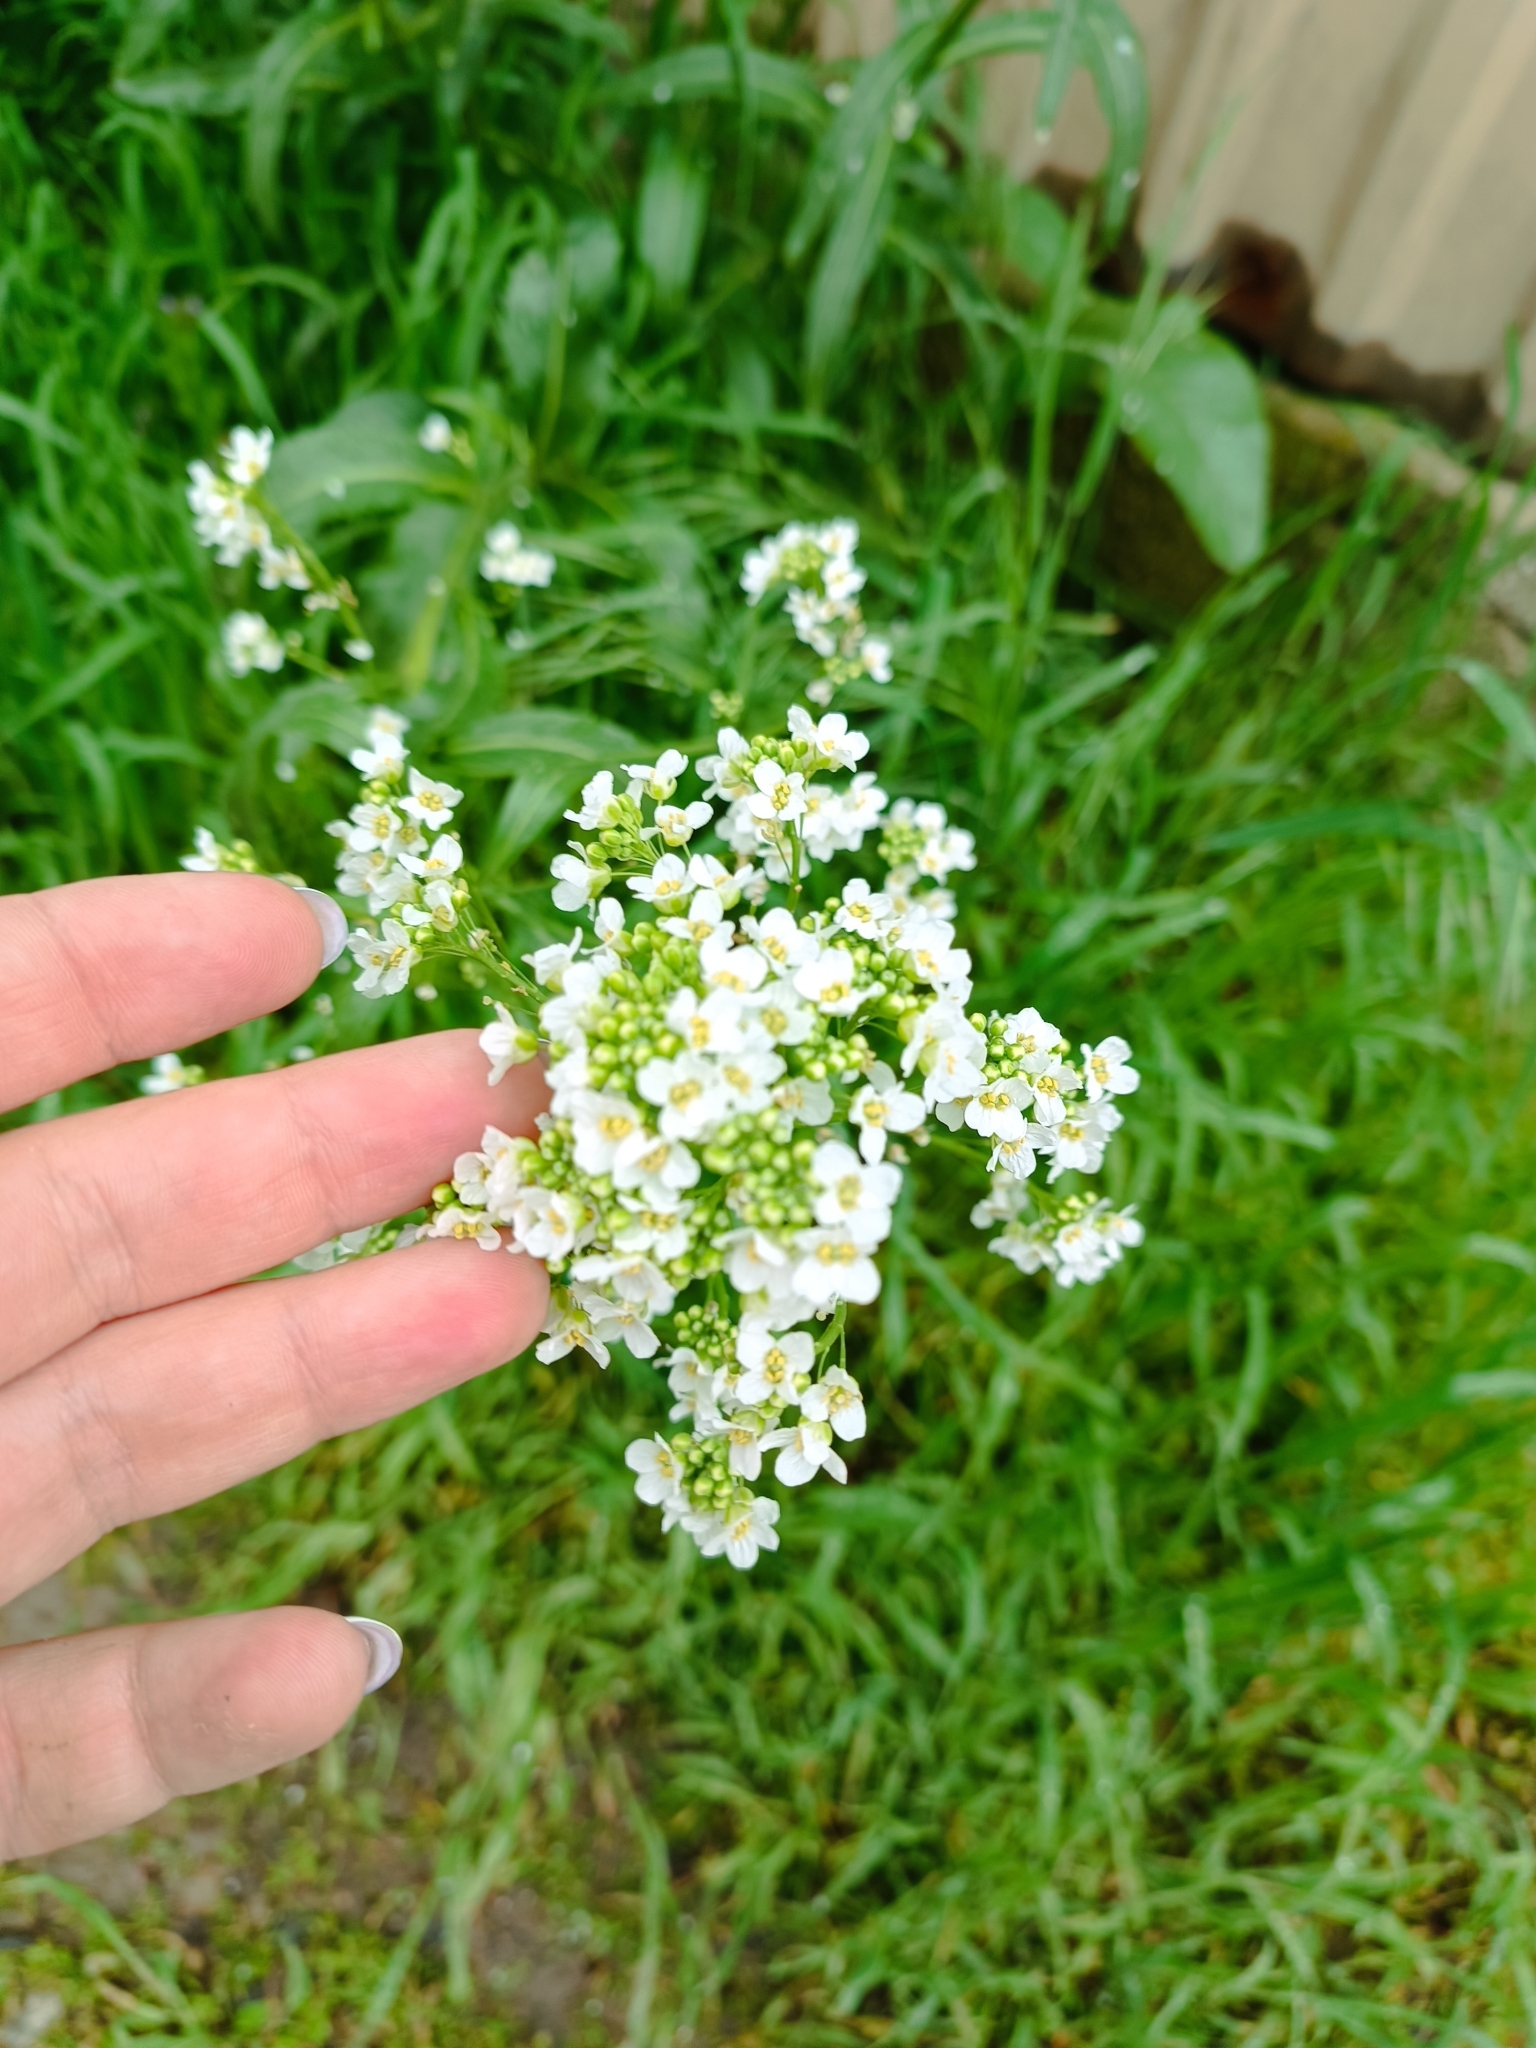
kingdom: Plantae
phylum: Tracheophyta
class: Magnoliopsida
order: Brassicales
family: Brassicaceae
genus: Armoracia
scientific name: Armoracia rusticana
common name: Horseradish
